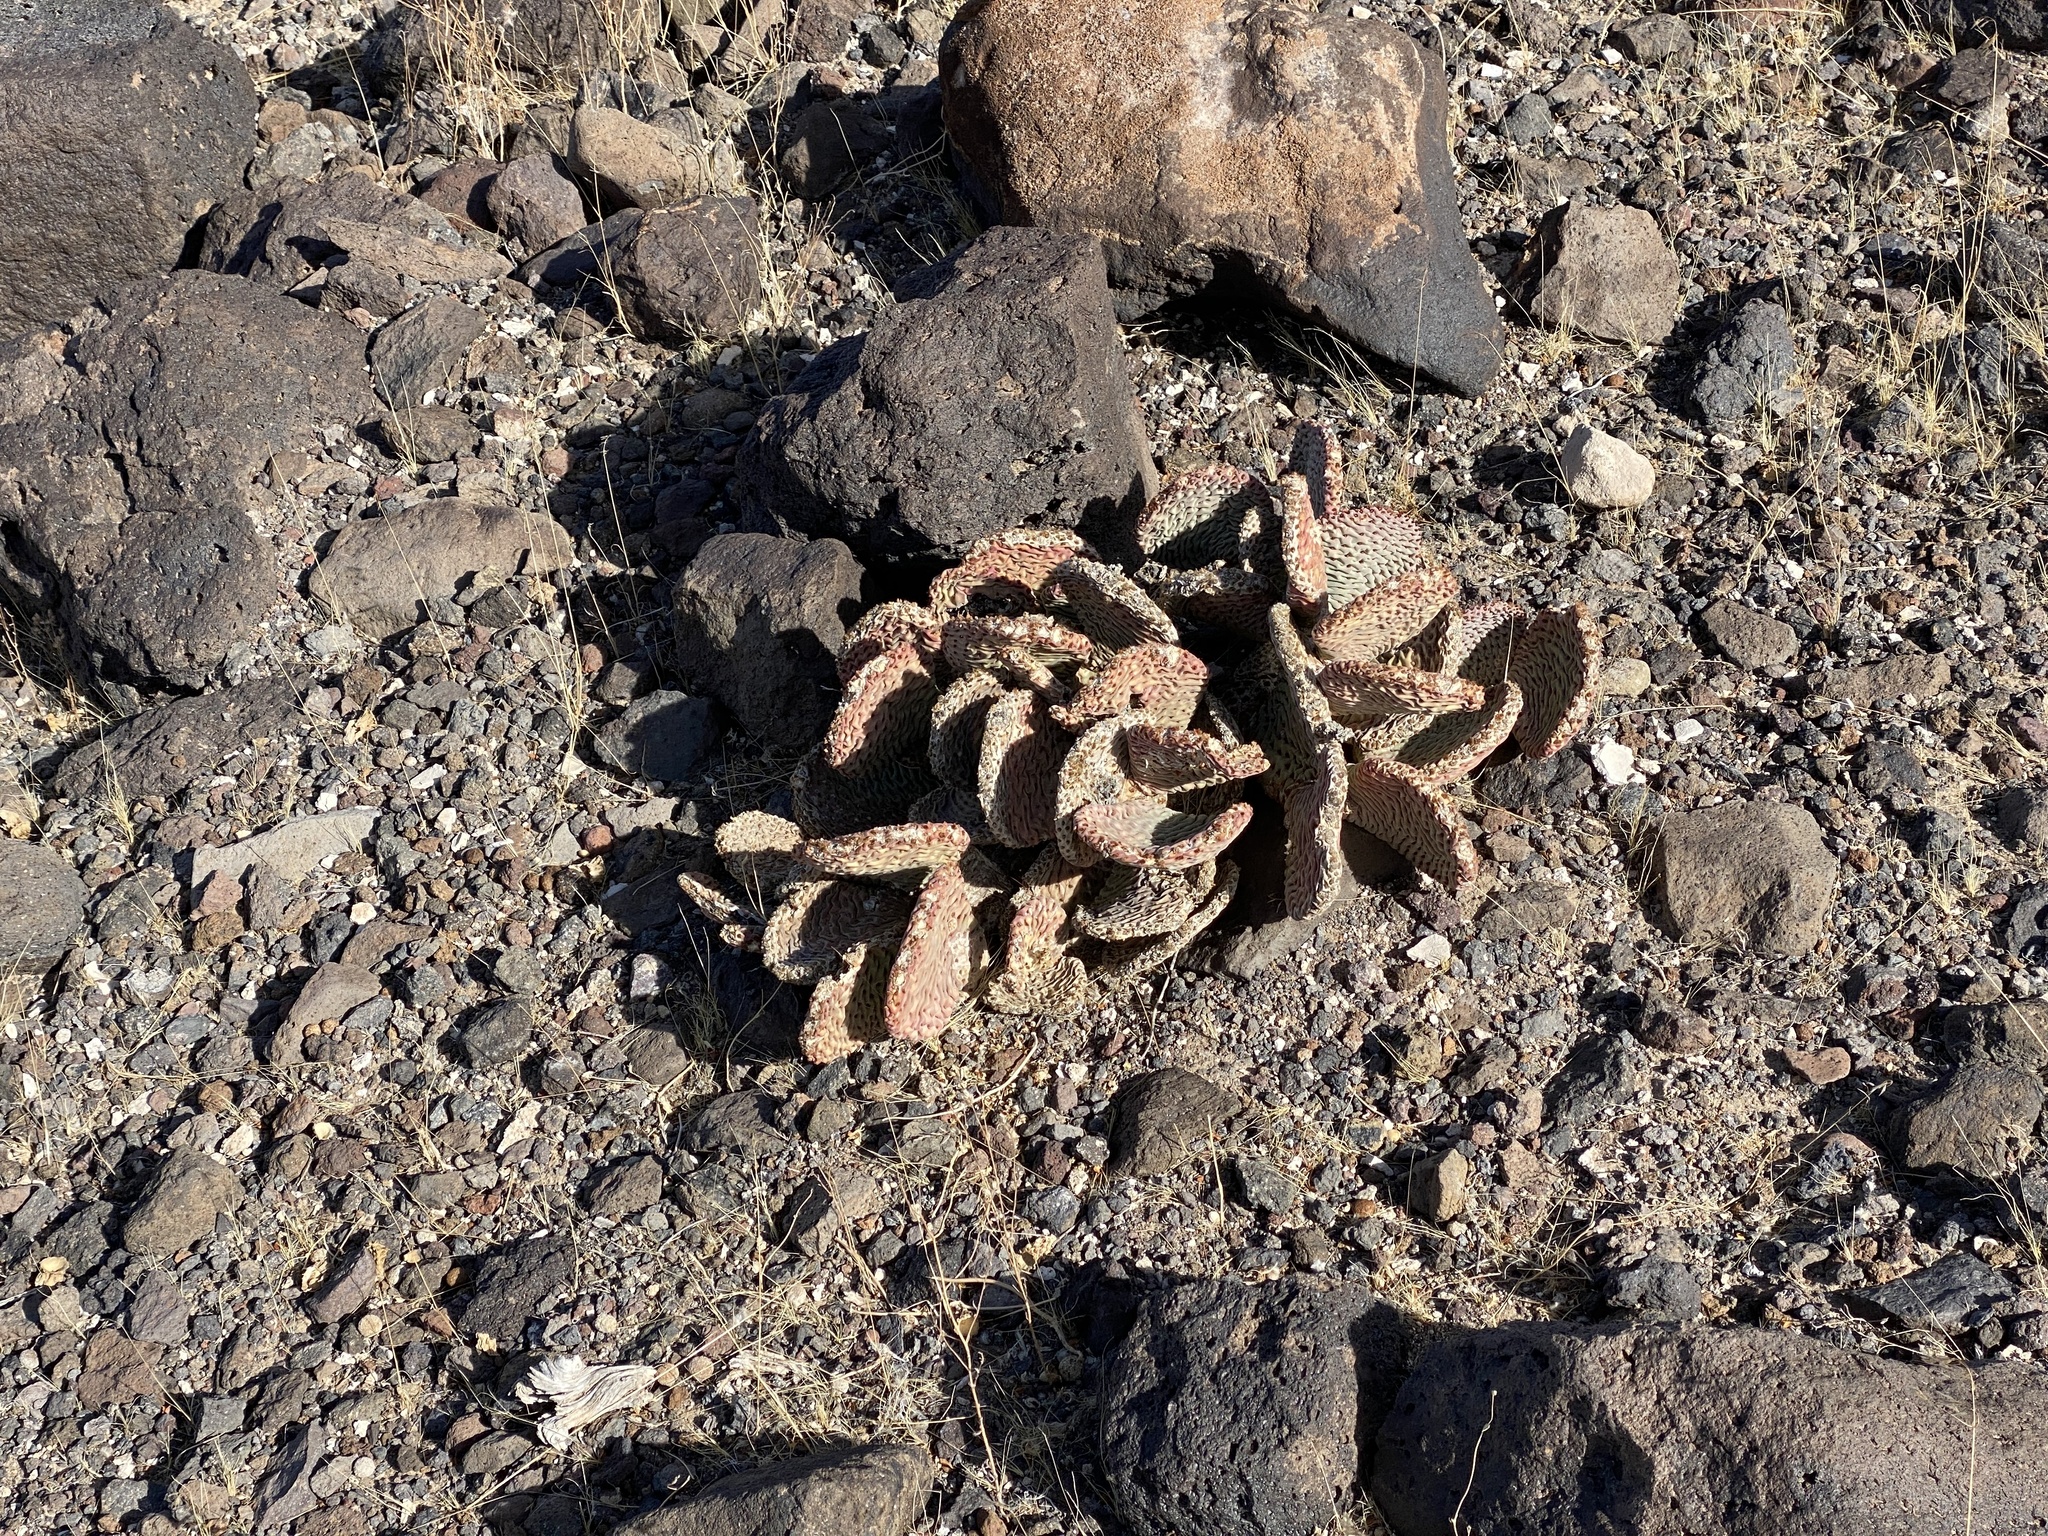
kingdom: Plantae
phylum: Tracheophyta
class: Magnoliopsida
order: Caryophyllales
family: Cactaceae
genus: Opuntia
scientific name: Opuntia basilaris
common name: Beavertail prickly-pear
